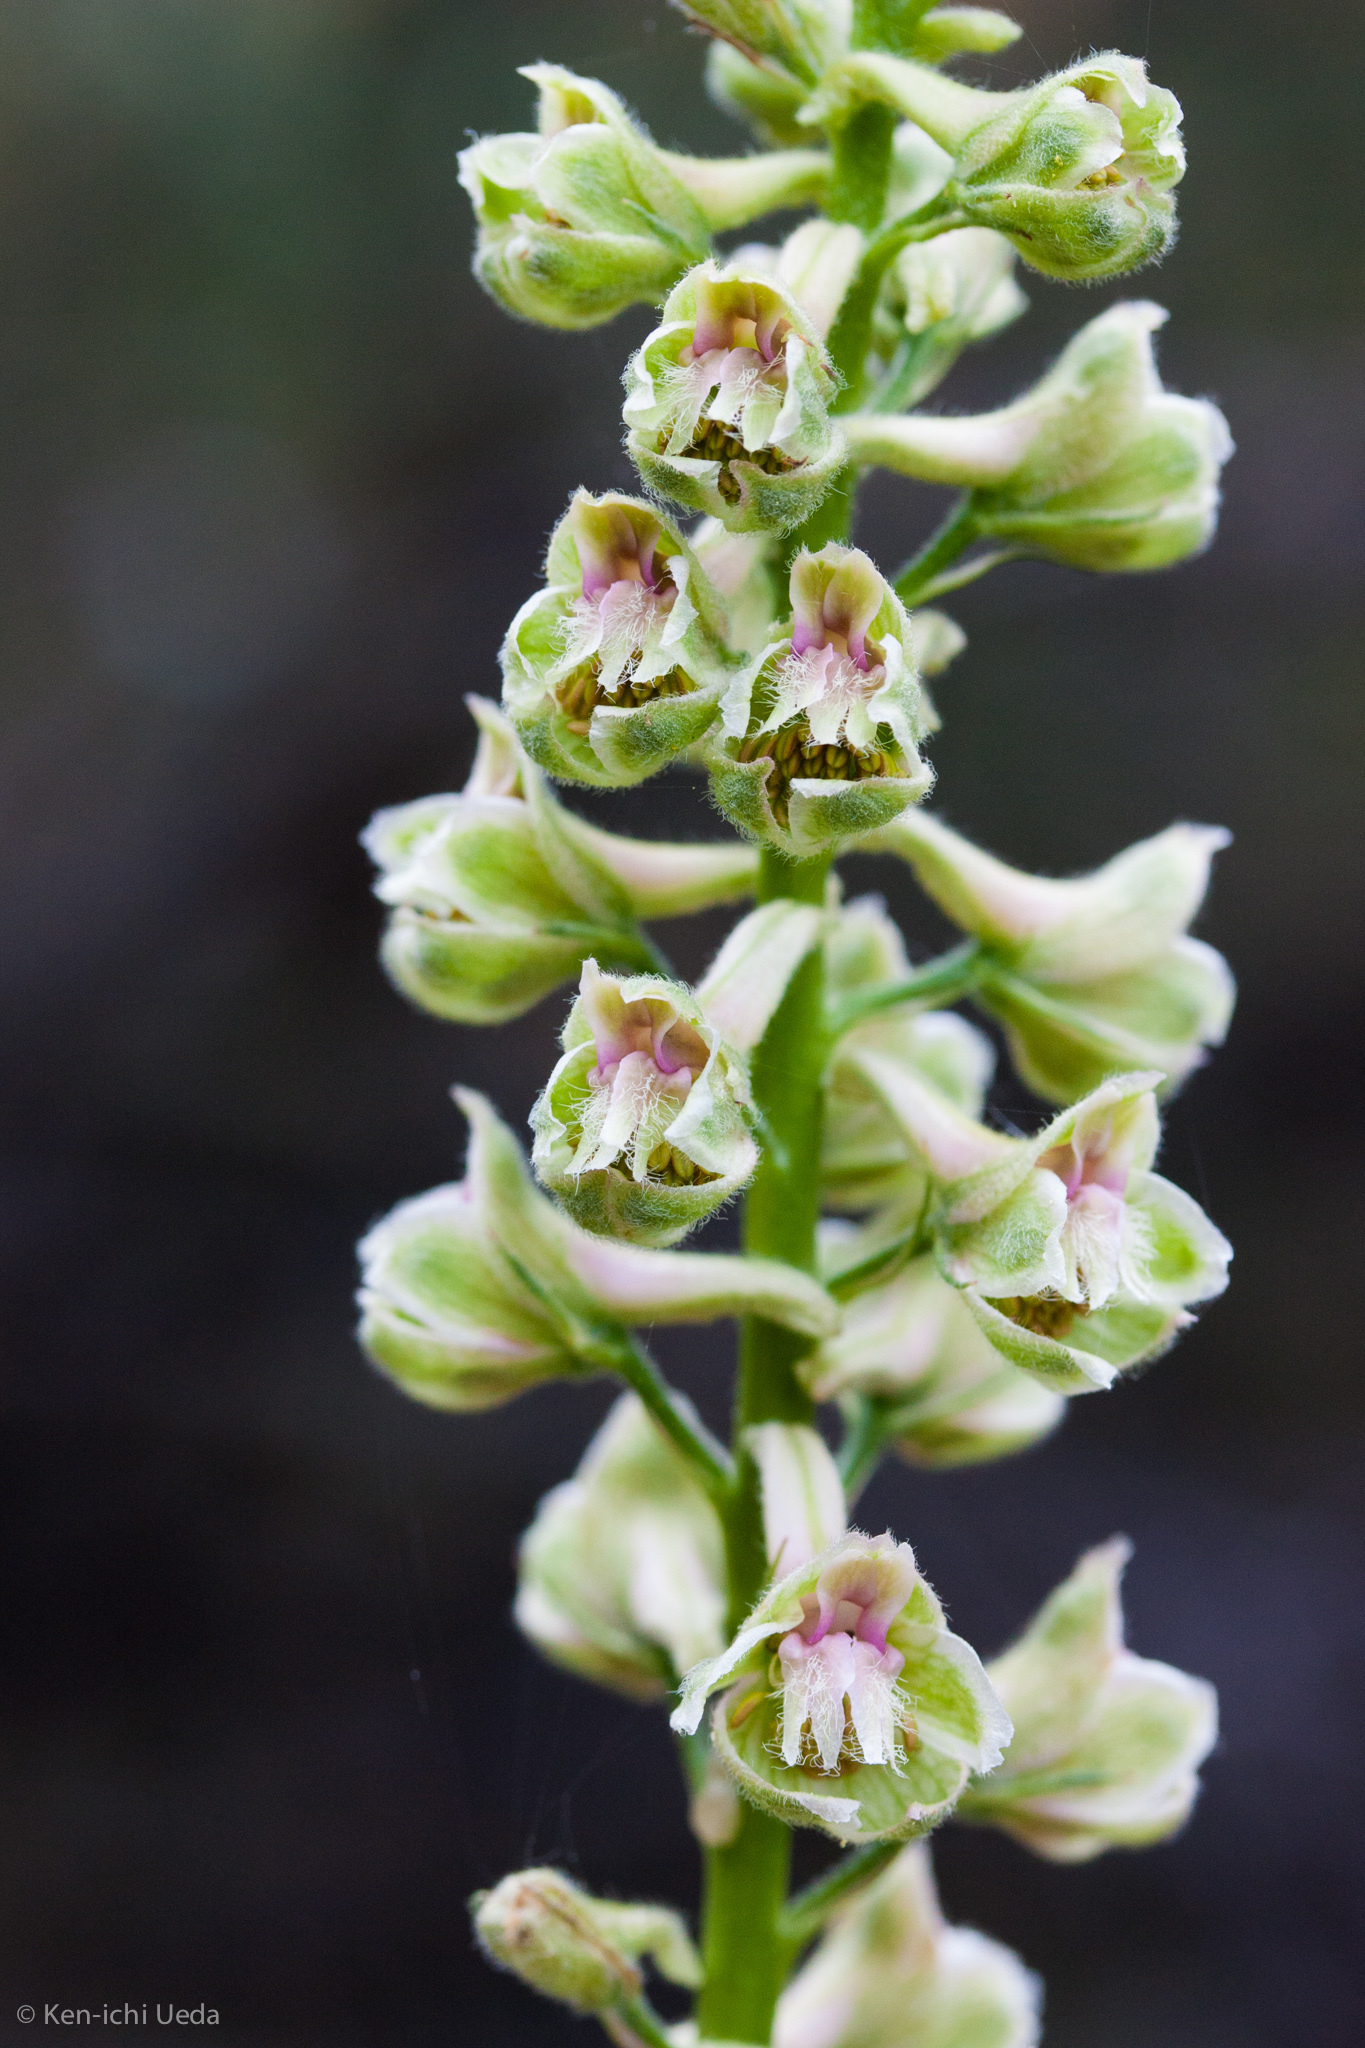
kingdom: Plantae
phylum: Tracheophyta
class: Magnoliopsida
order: Ranunculales
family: Ranunculaceae
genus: Delphinium
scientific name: Delphinium californicum
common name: California larkspur
